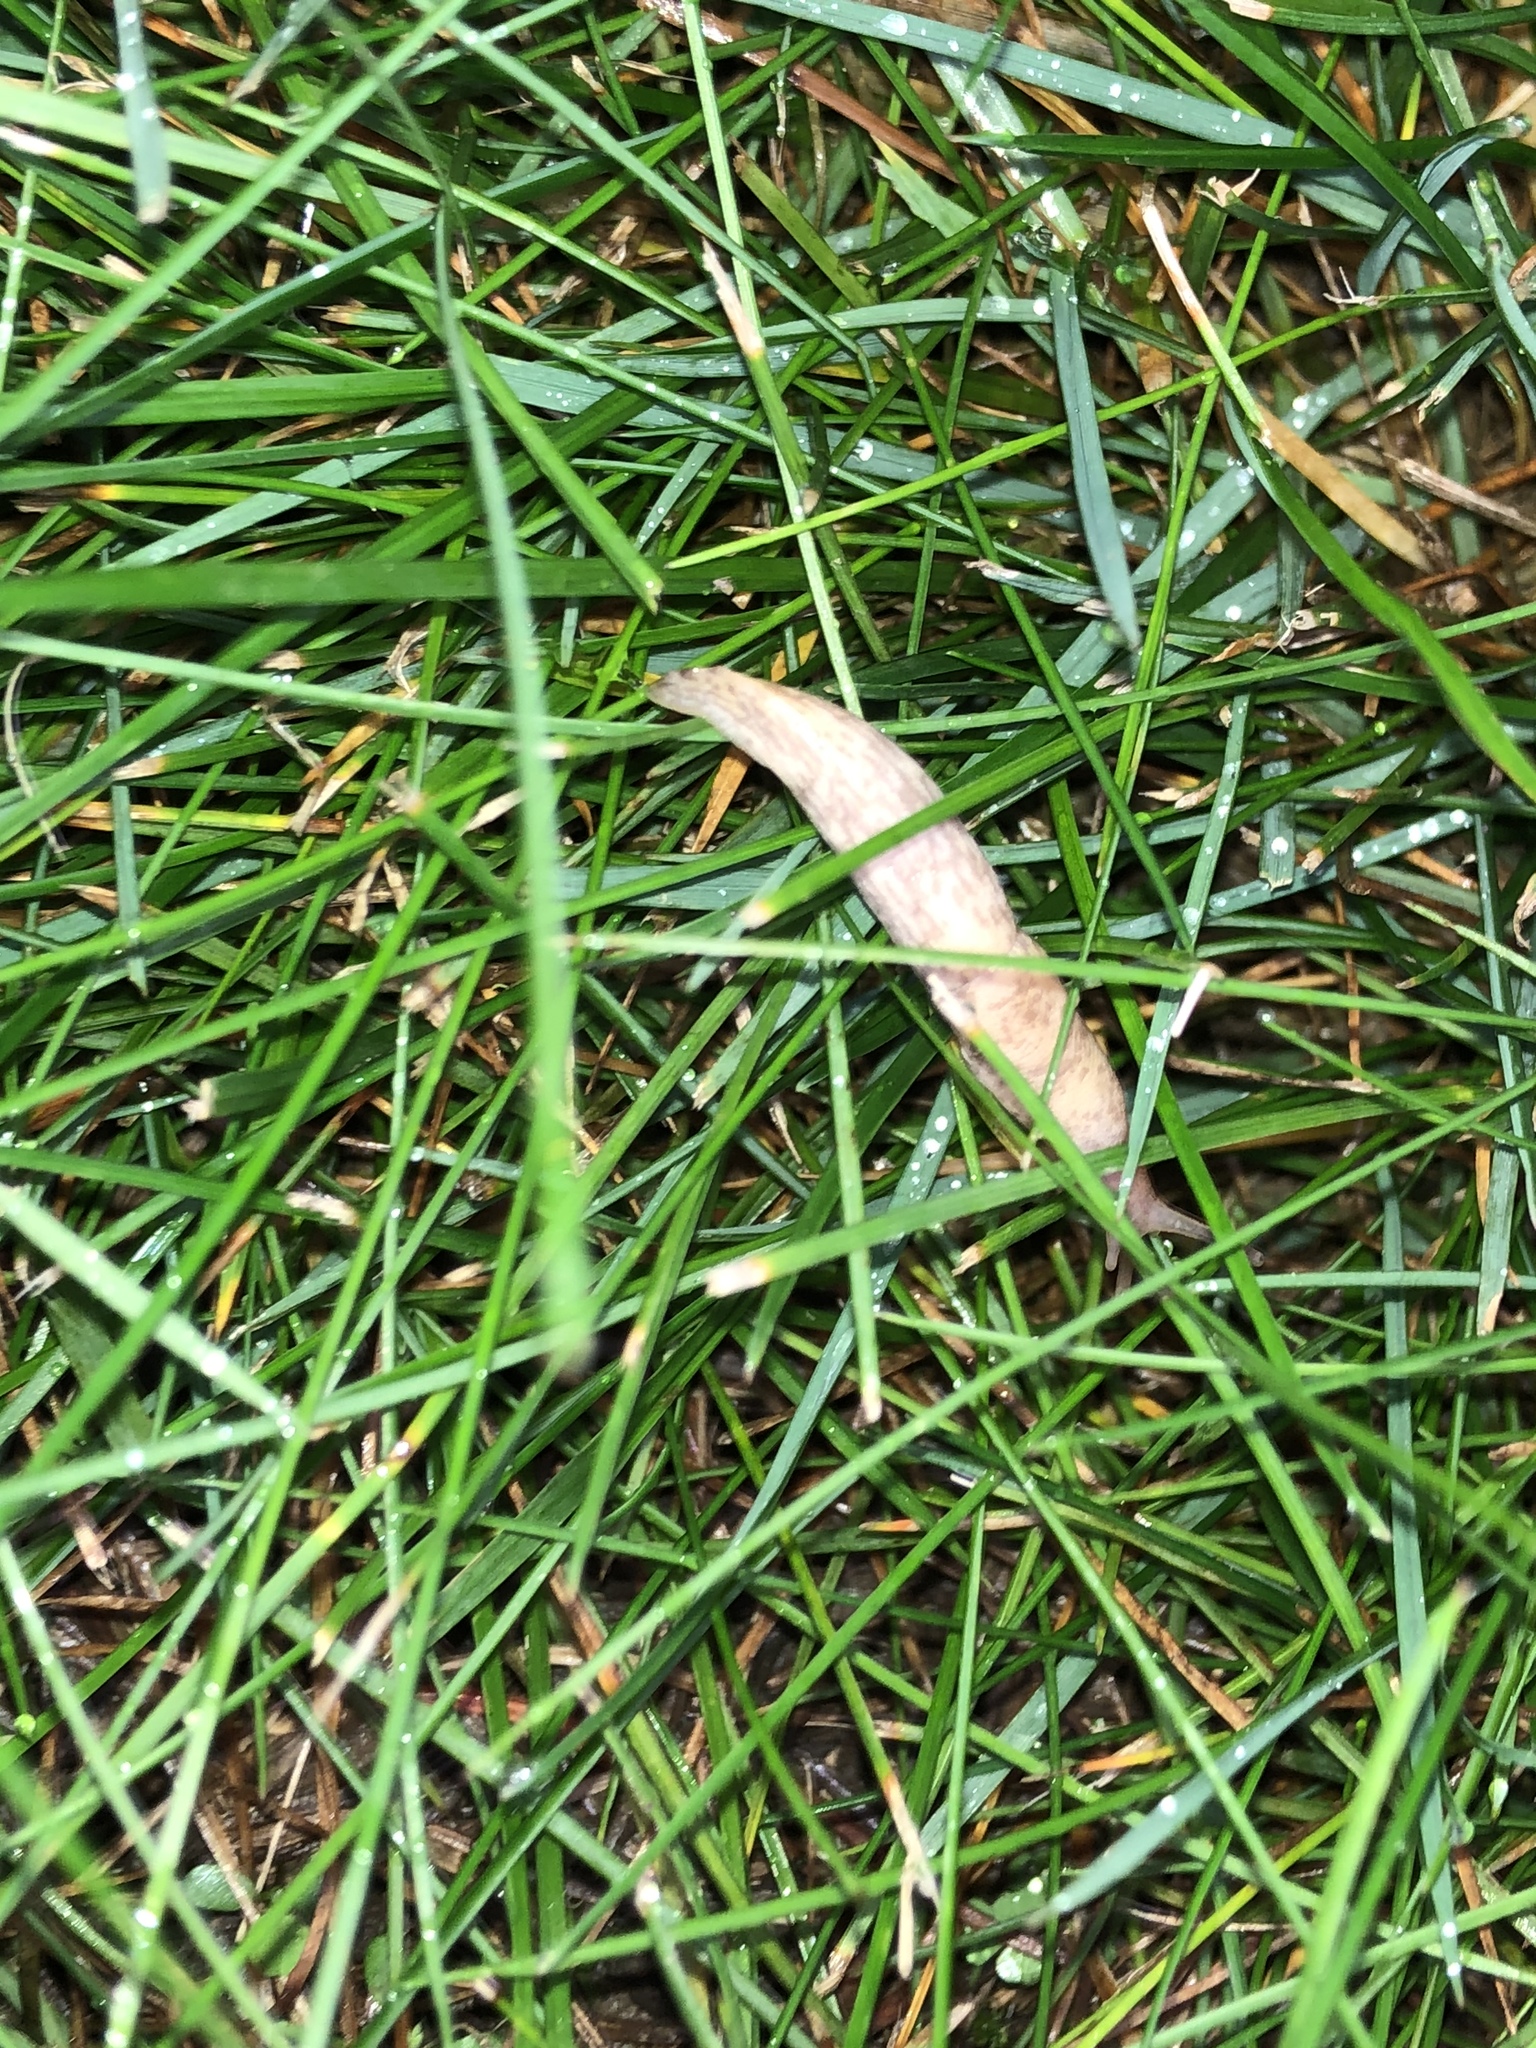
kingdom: Animalia
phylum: Mollusca
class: Gastropoda
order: Stylommatophora
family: Agriolimacidae
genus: Deroceras
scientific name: Deroceras reticulatum
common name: Gray field slug
